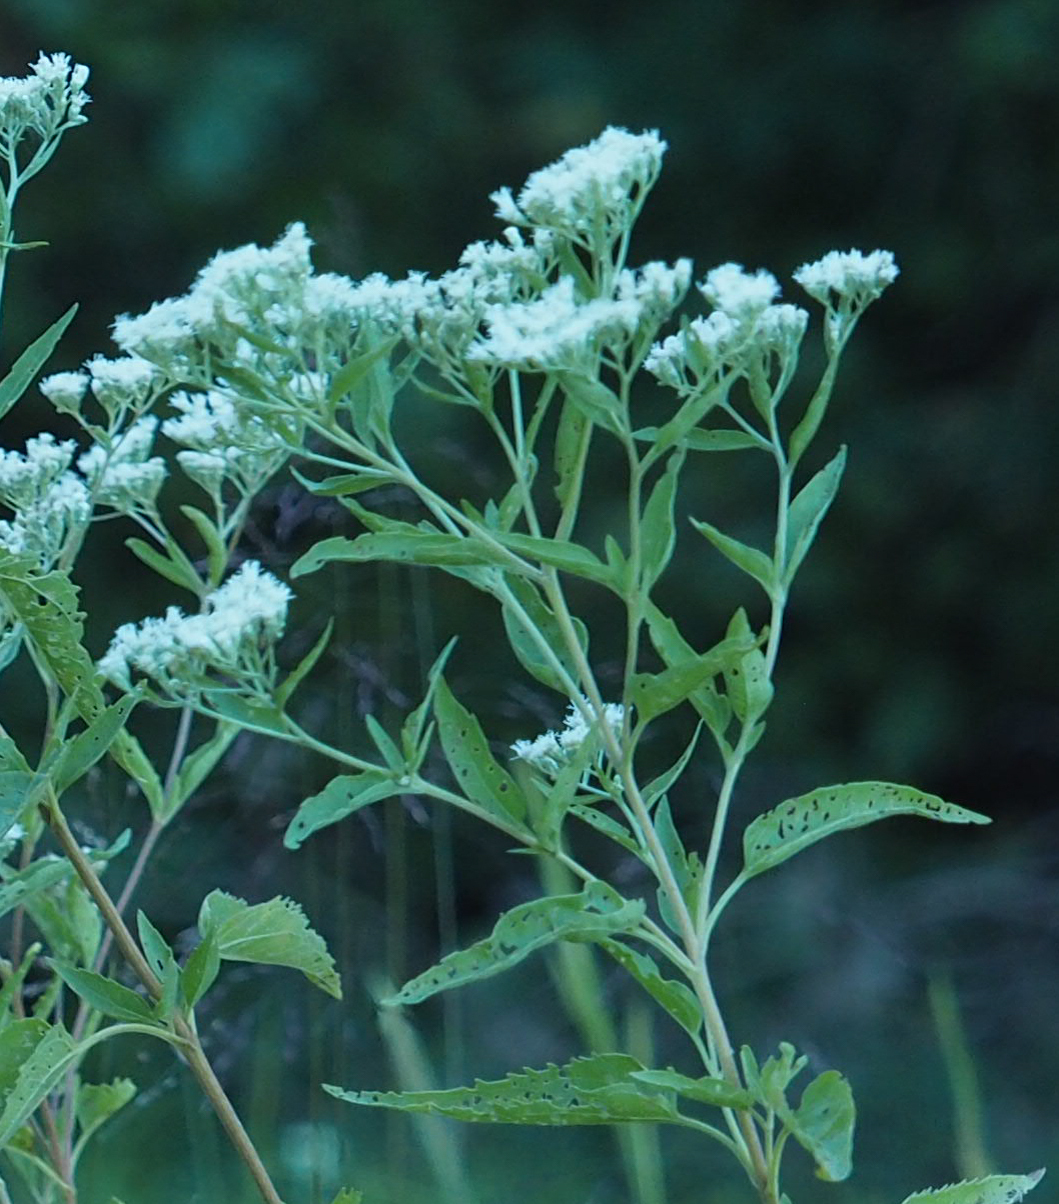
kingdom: Plantae
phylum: Tracheophyta
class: Magnoliopsida
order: Asterales
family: Asteraceae
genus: Eupatorium
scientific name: Eupatorium serotinum
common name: Late boneset
